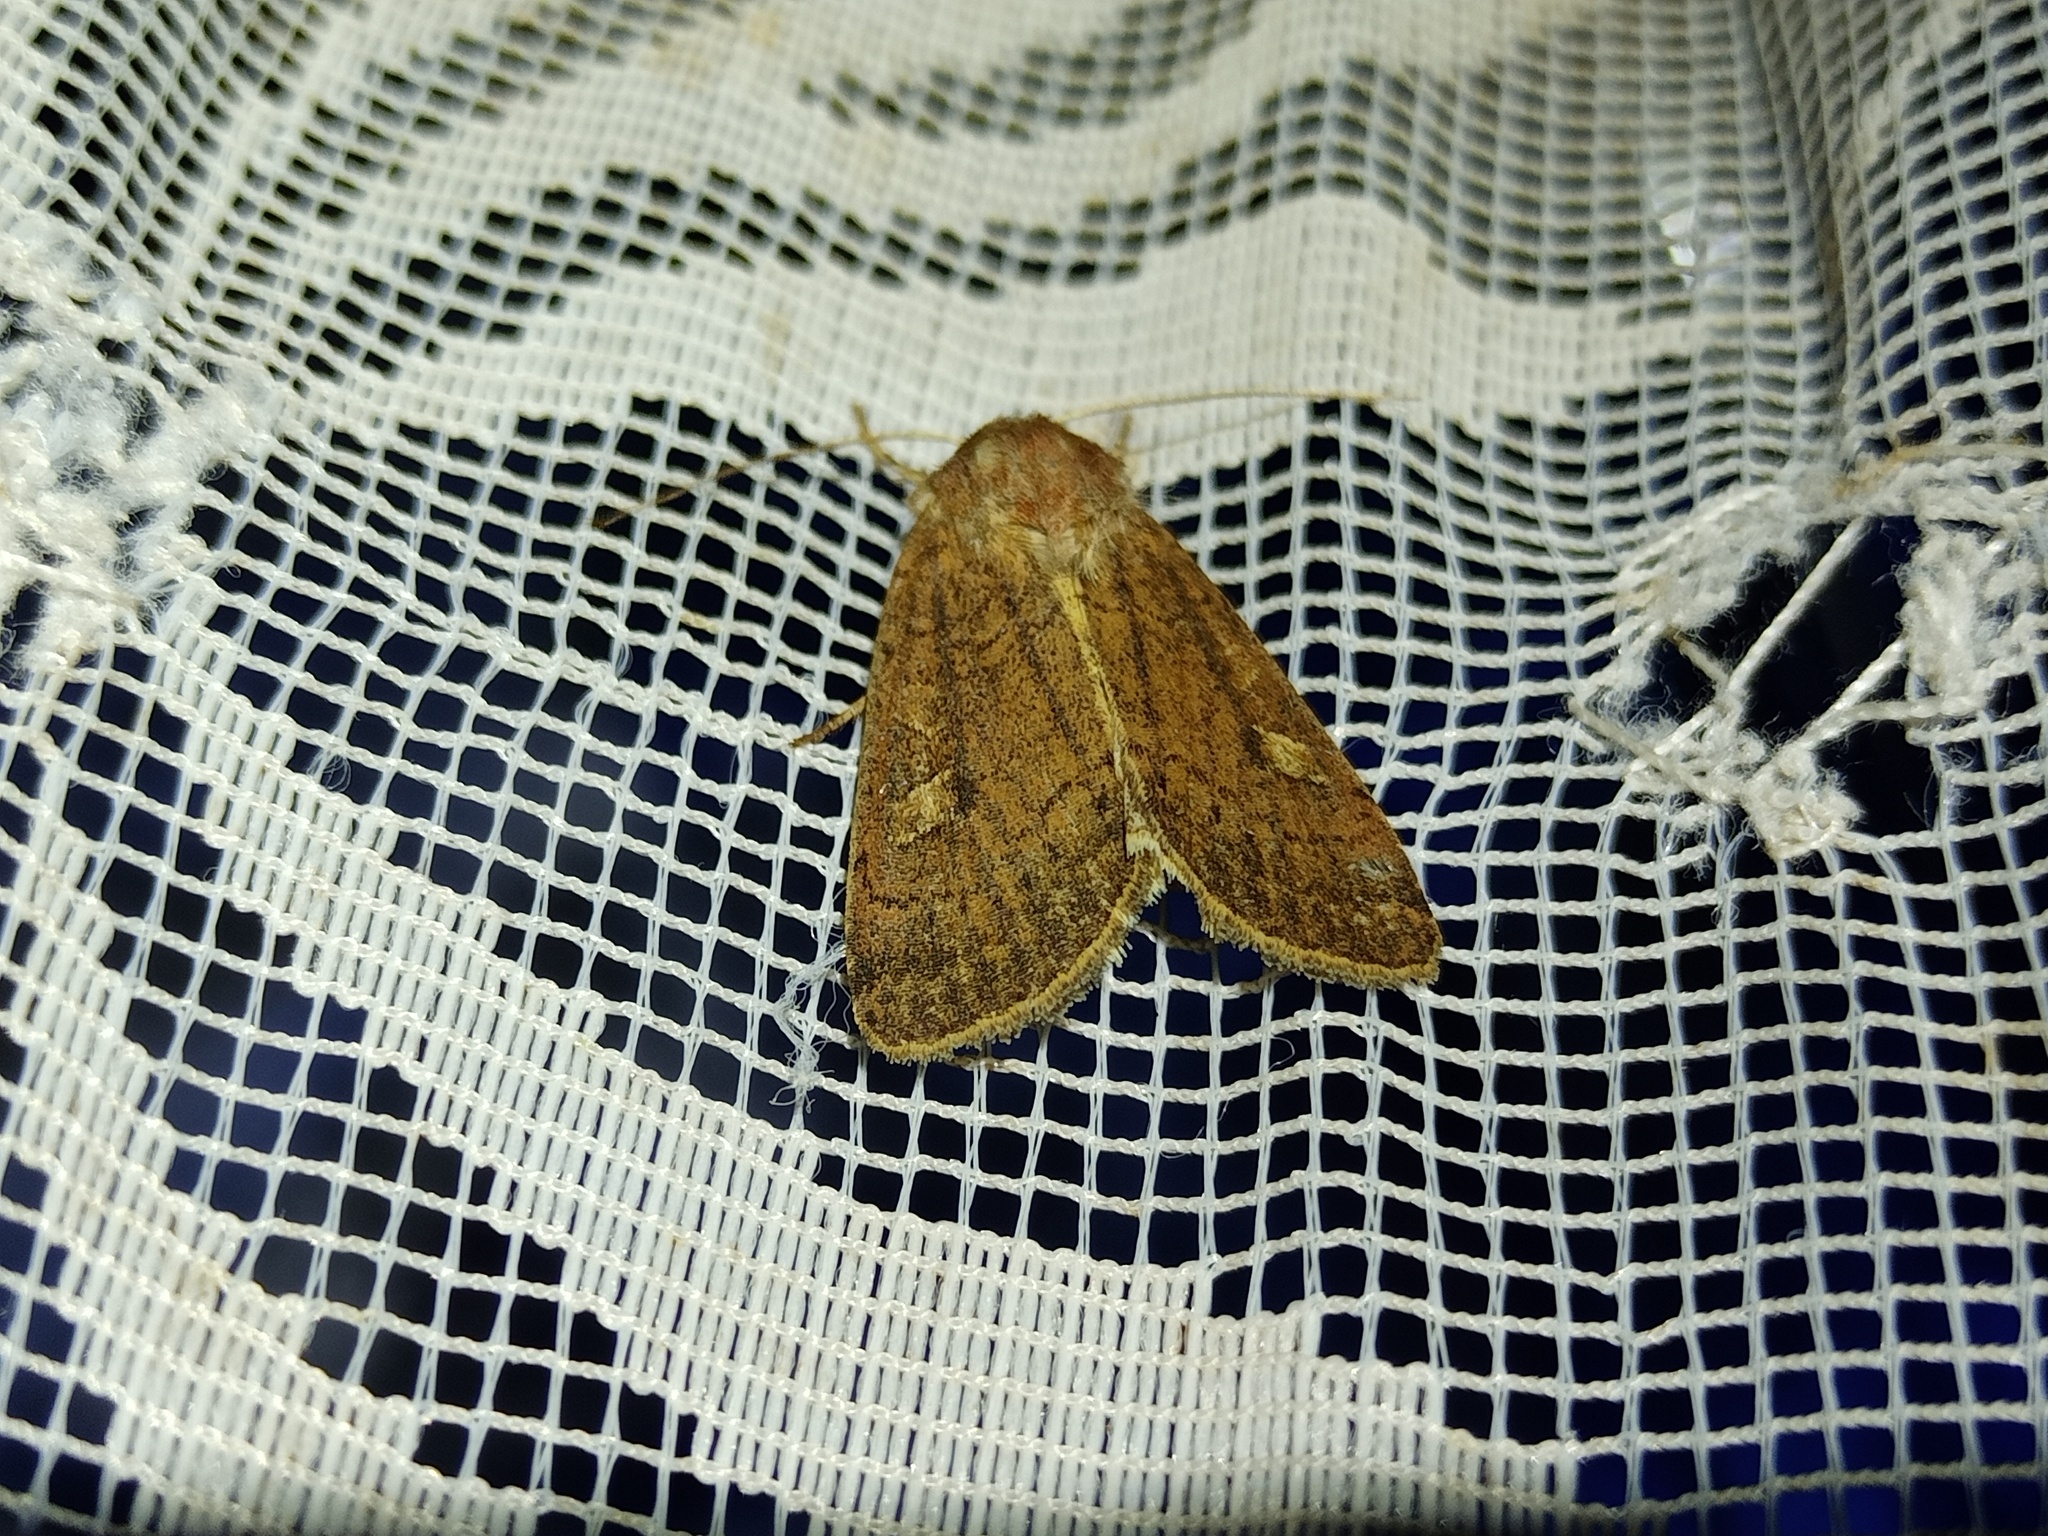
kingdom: Animalia
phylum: Arthropoda
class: Insecta
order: Lepidoptera
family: Noctuidae
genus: Xestia
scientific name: Xestia xanthographa
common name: Square-spot rustic
